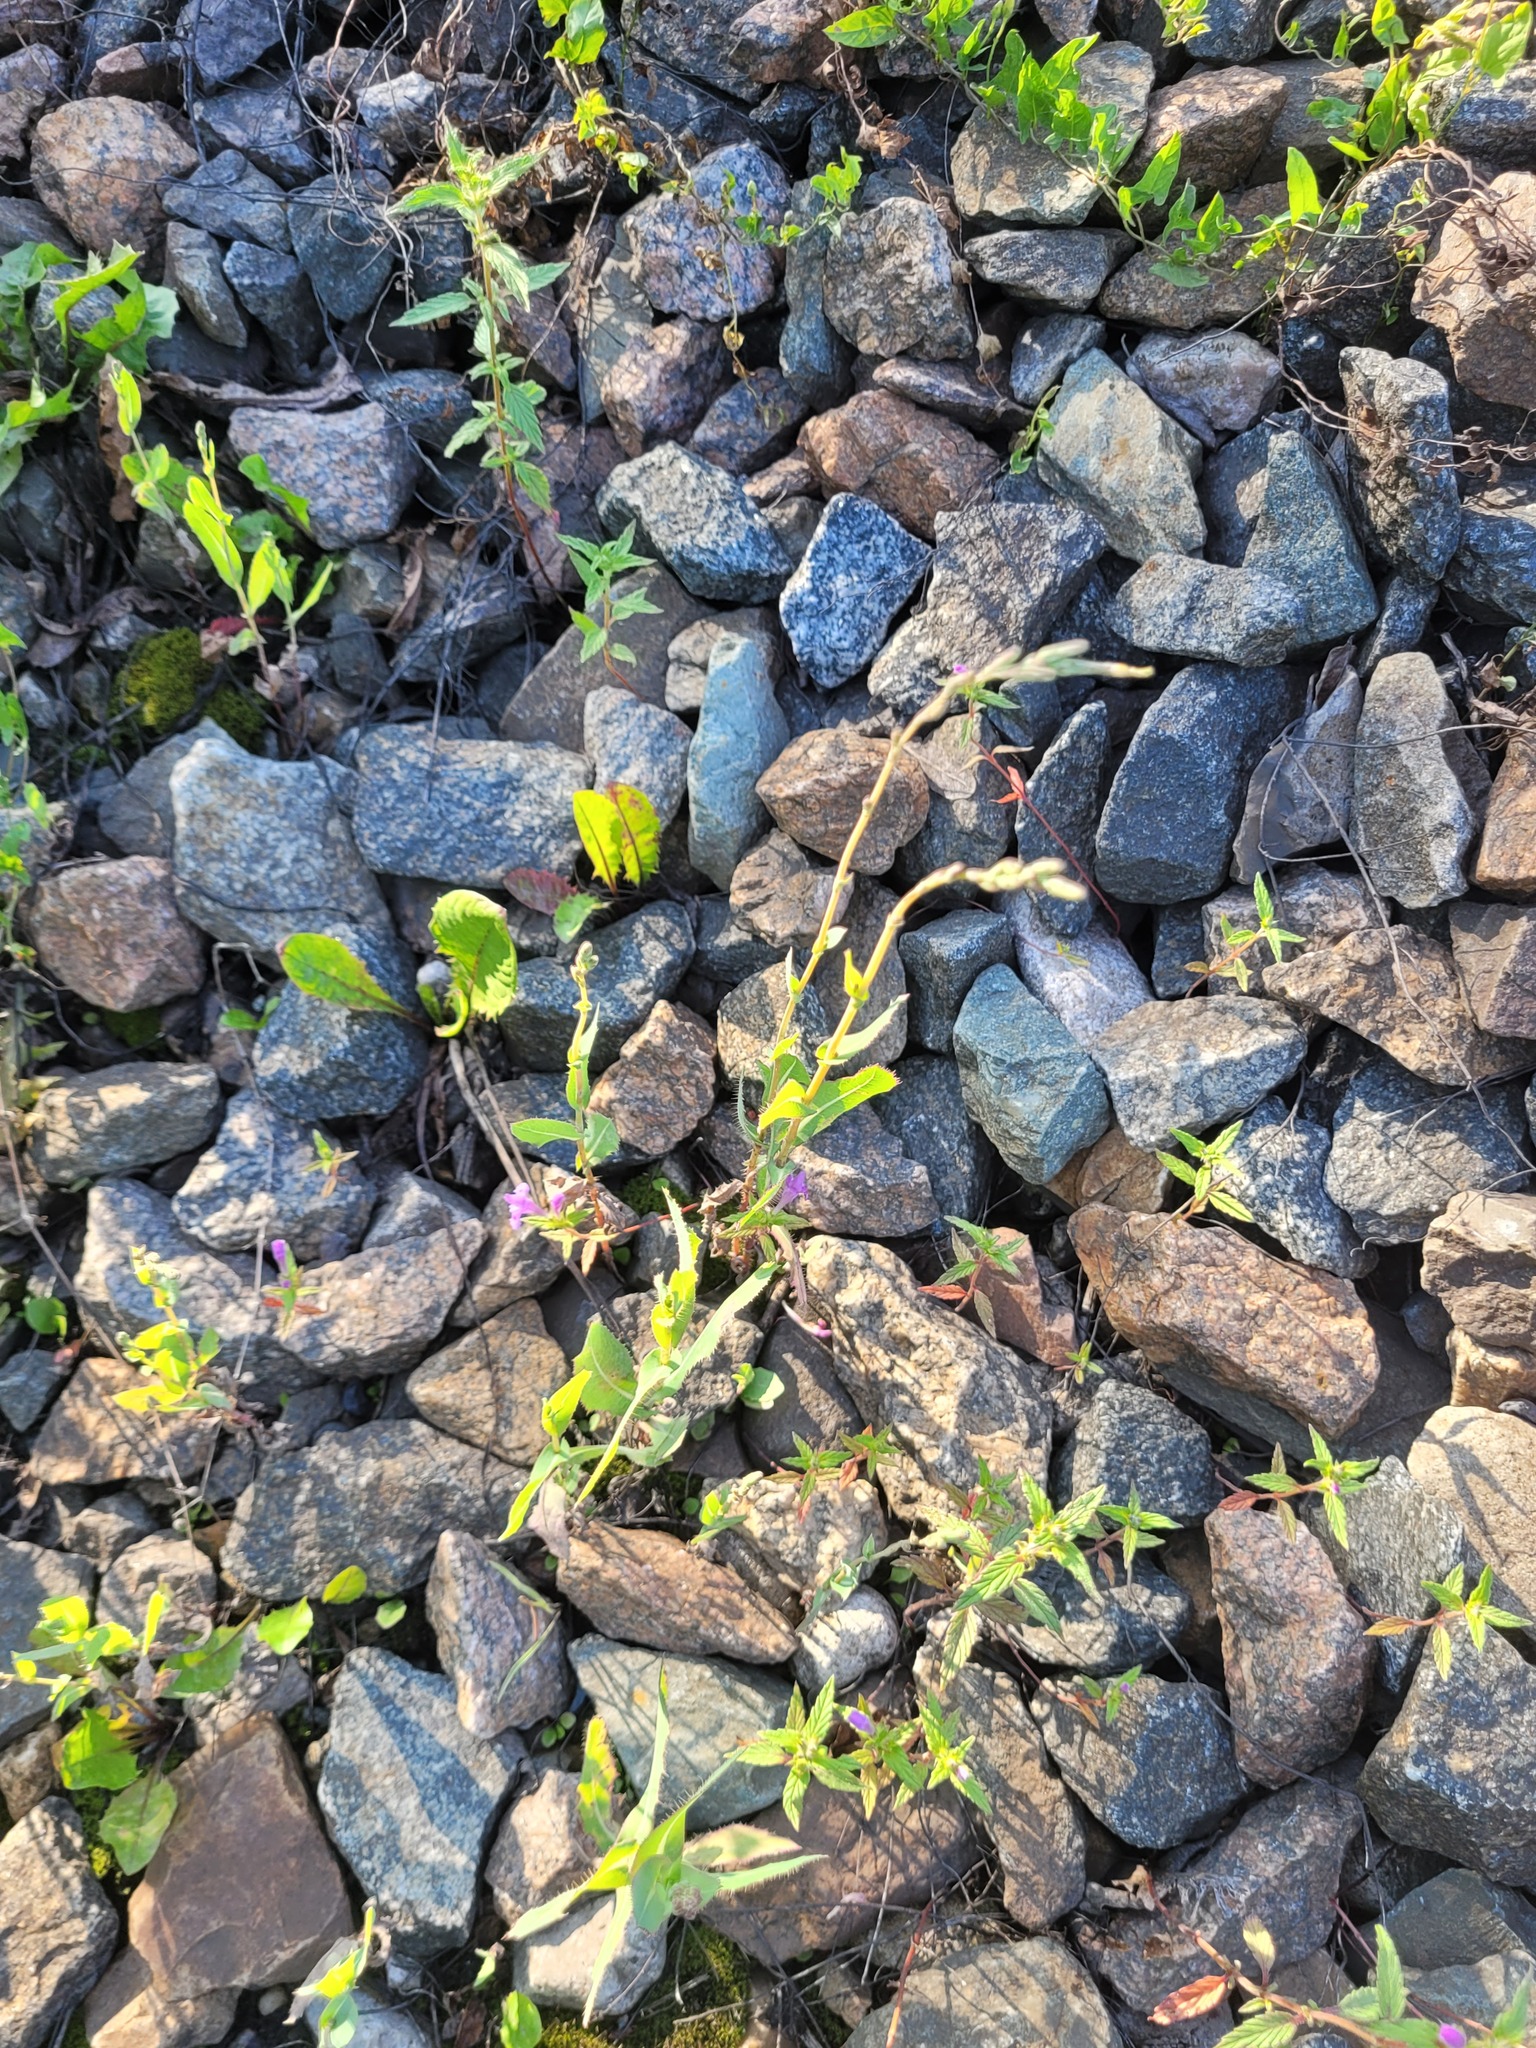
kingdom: Plantae
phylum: Tracheophyta
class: Magnoliopsida
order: Asterales
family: Asteraceae
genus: Lactuca
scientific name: Lactuca serriola
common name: Prickly lettuce
